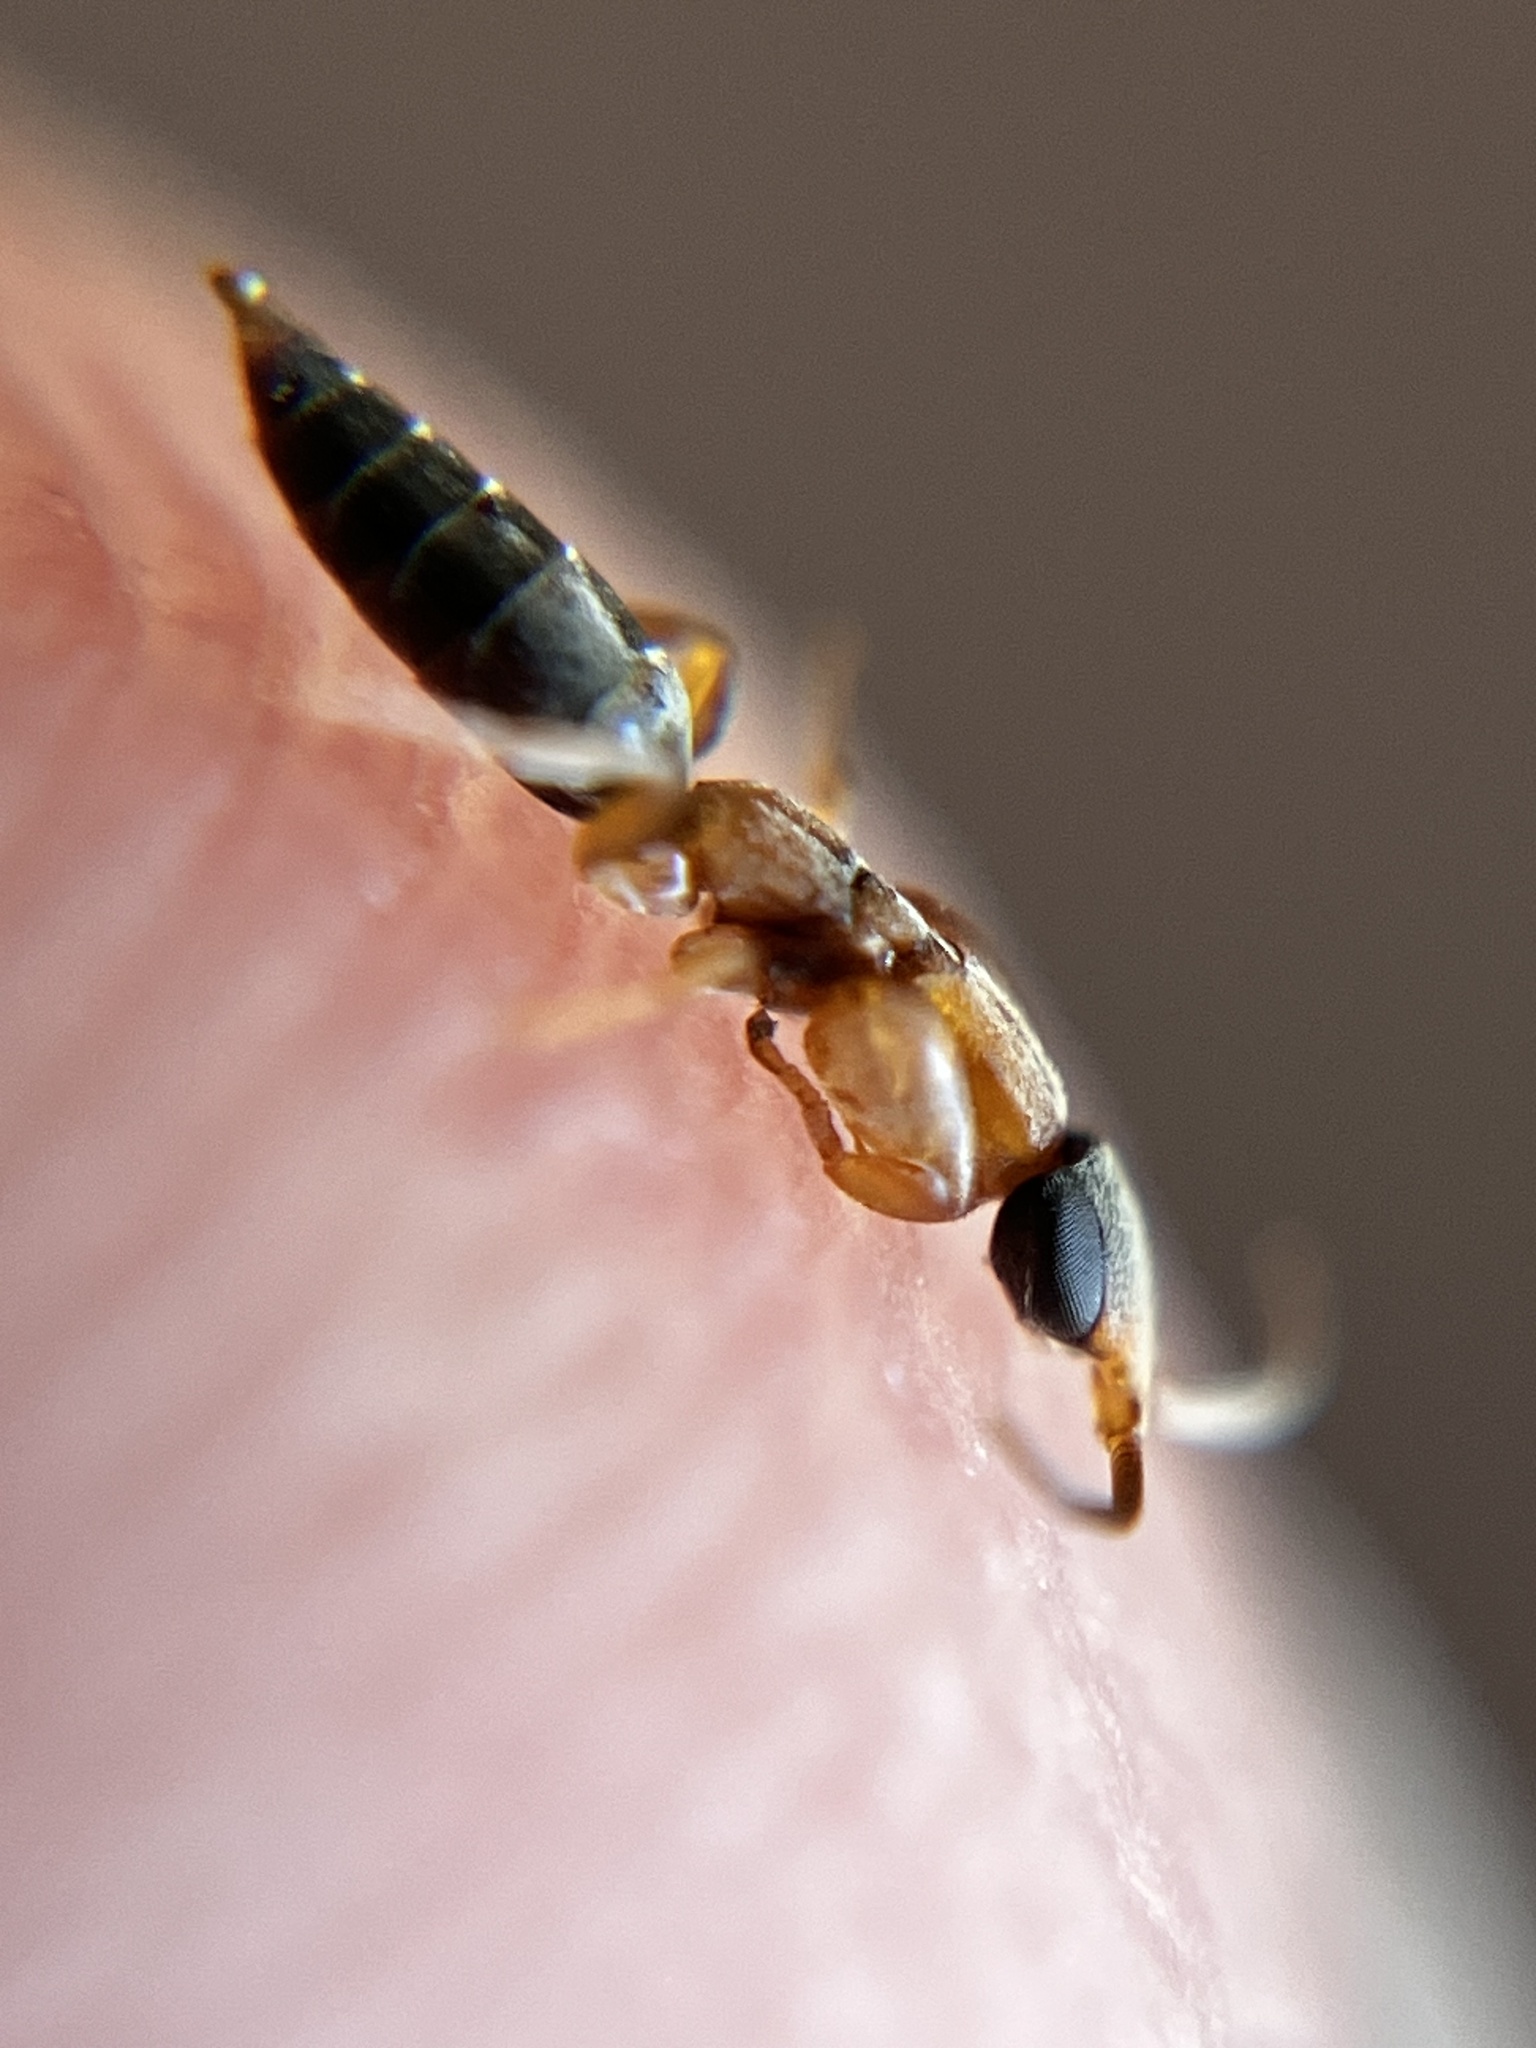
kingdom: Animalia
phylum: Arthropoda
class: Insecta
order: Hymenoptera
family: Sclerogibbidae
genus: Sclerogibba
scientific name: Sclerogibba africana
